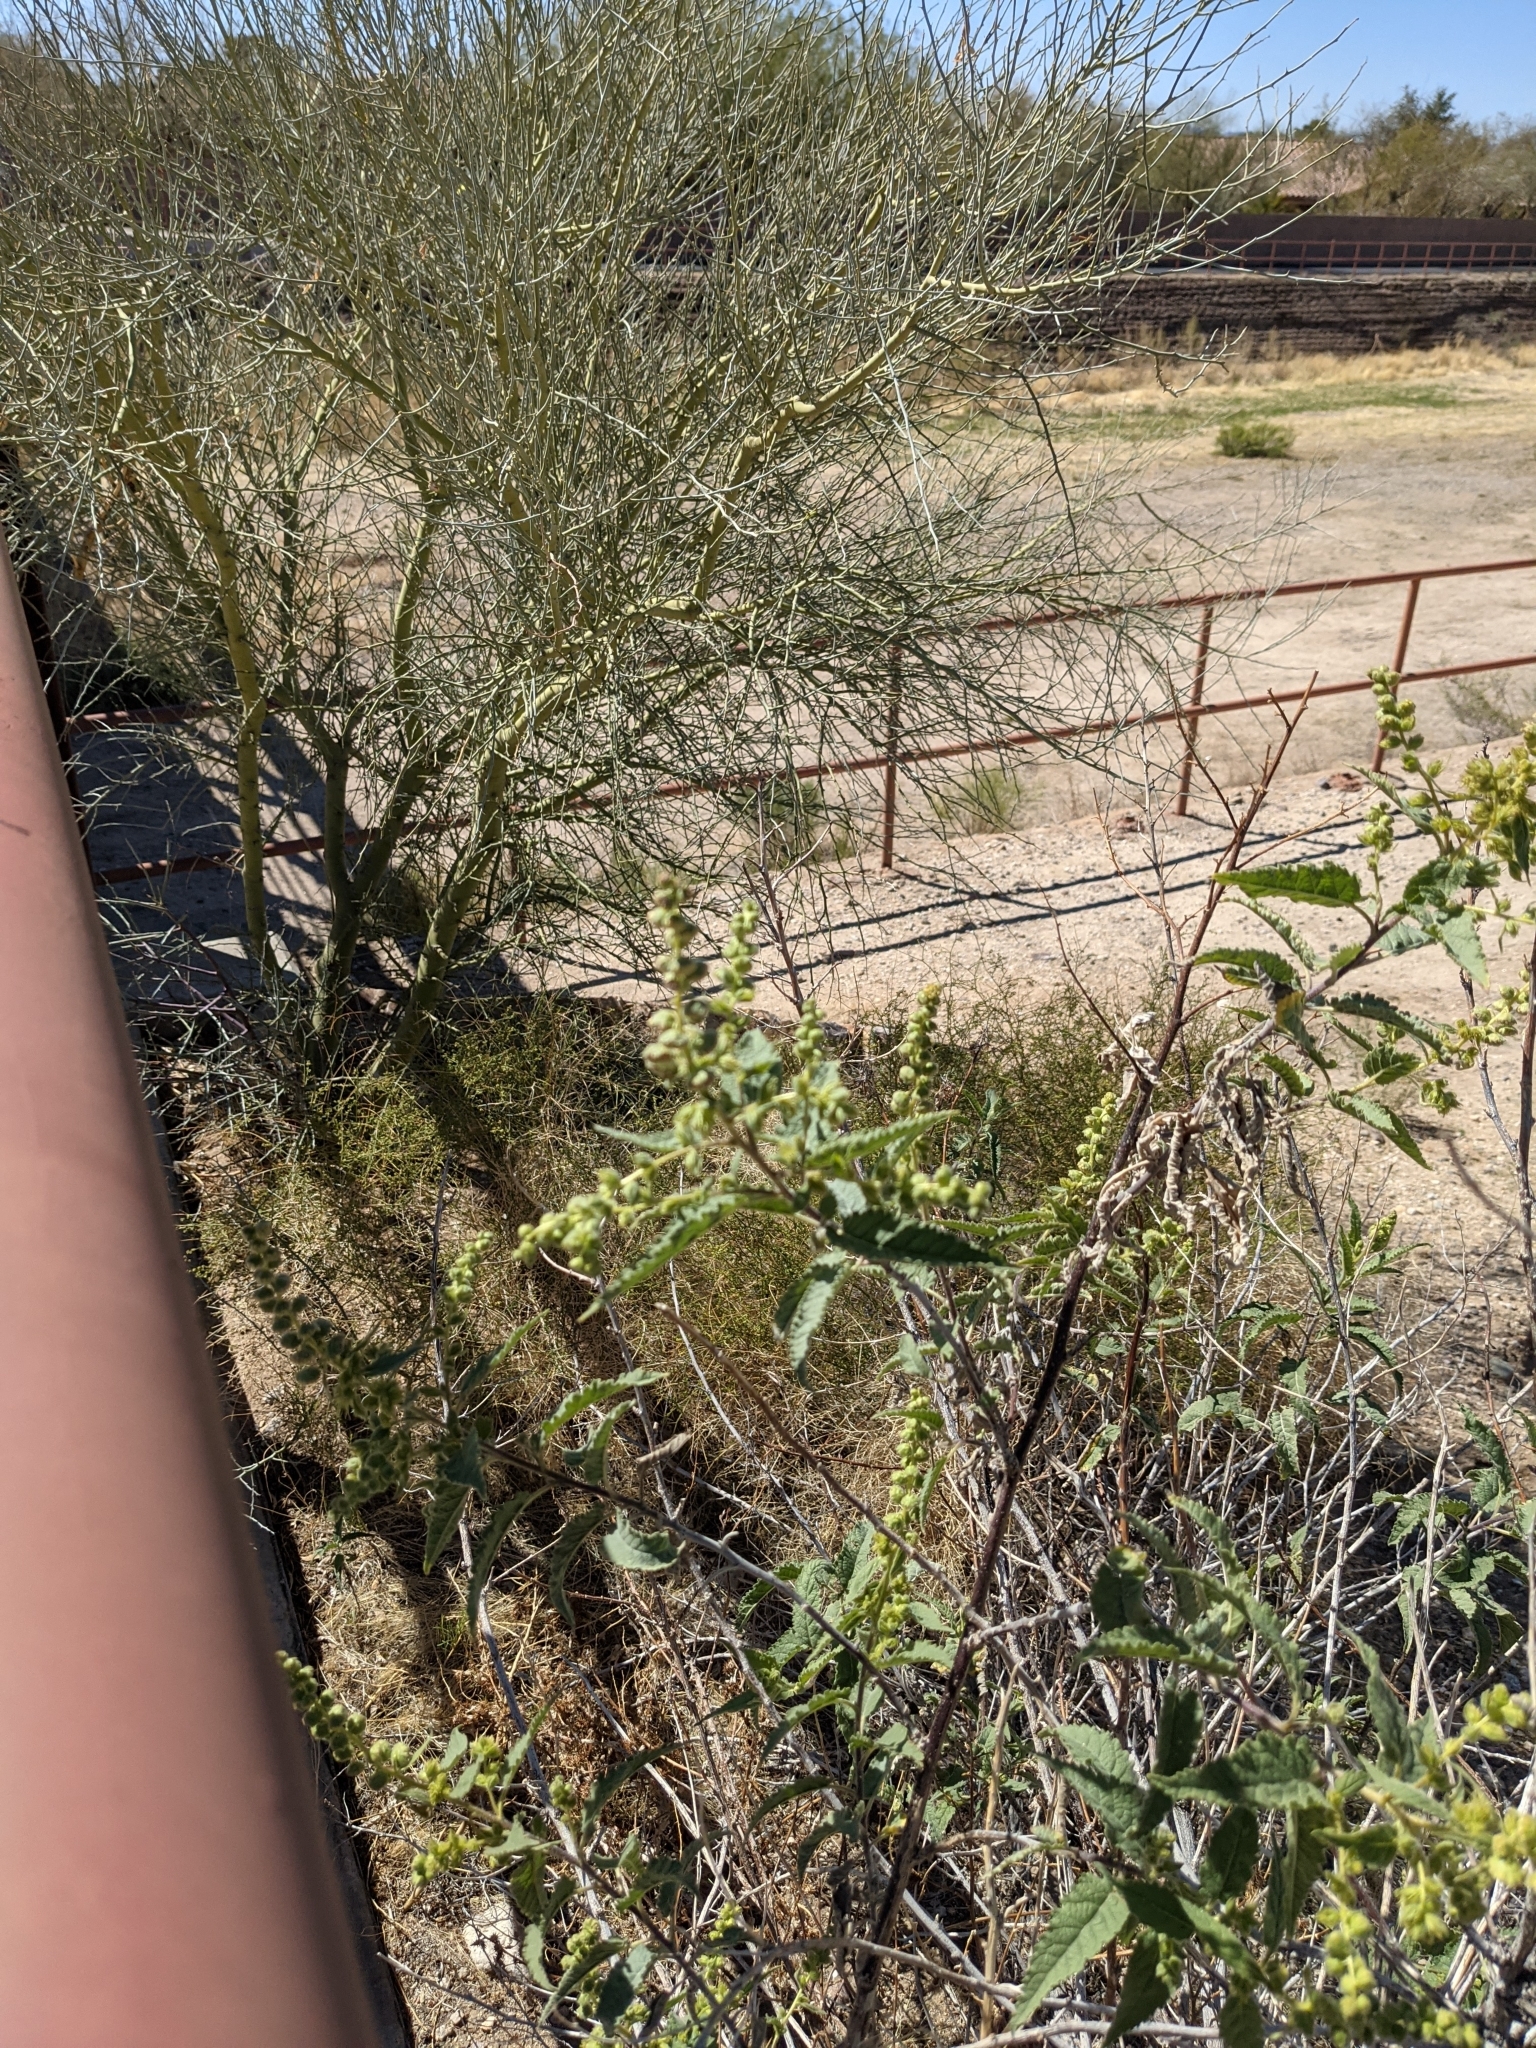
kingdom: Plantae
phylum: Tracheophyta
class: Magnoliopsida
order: Asterales
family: Asteraceae
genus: Ambrosia
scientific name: Ambrosia ambrosioides
